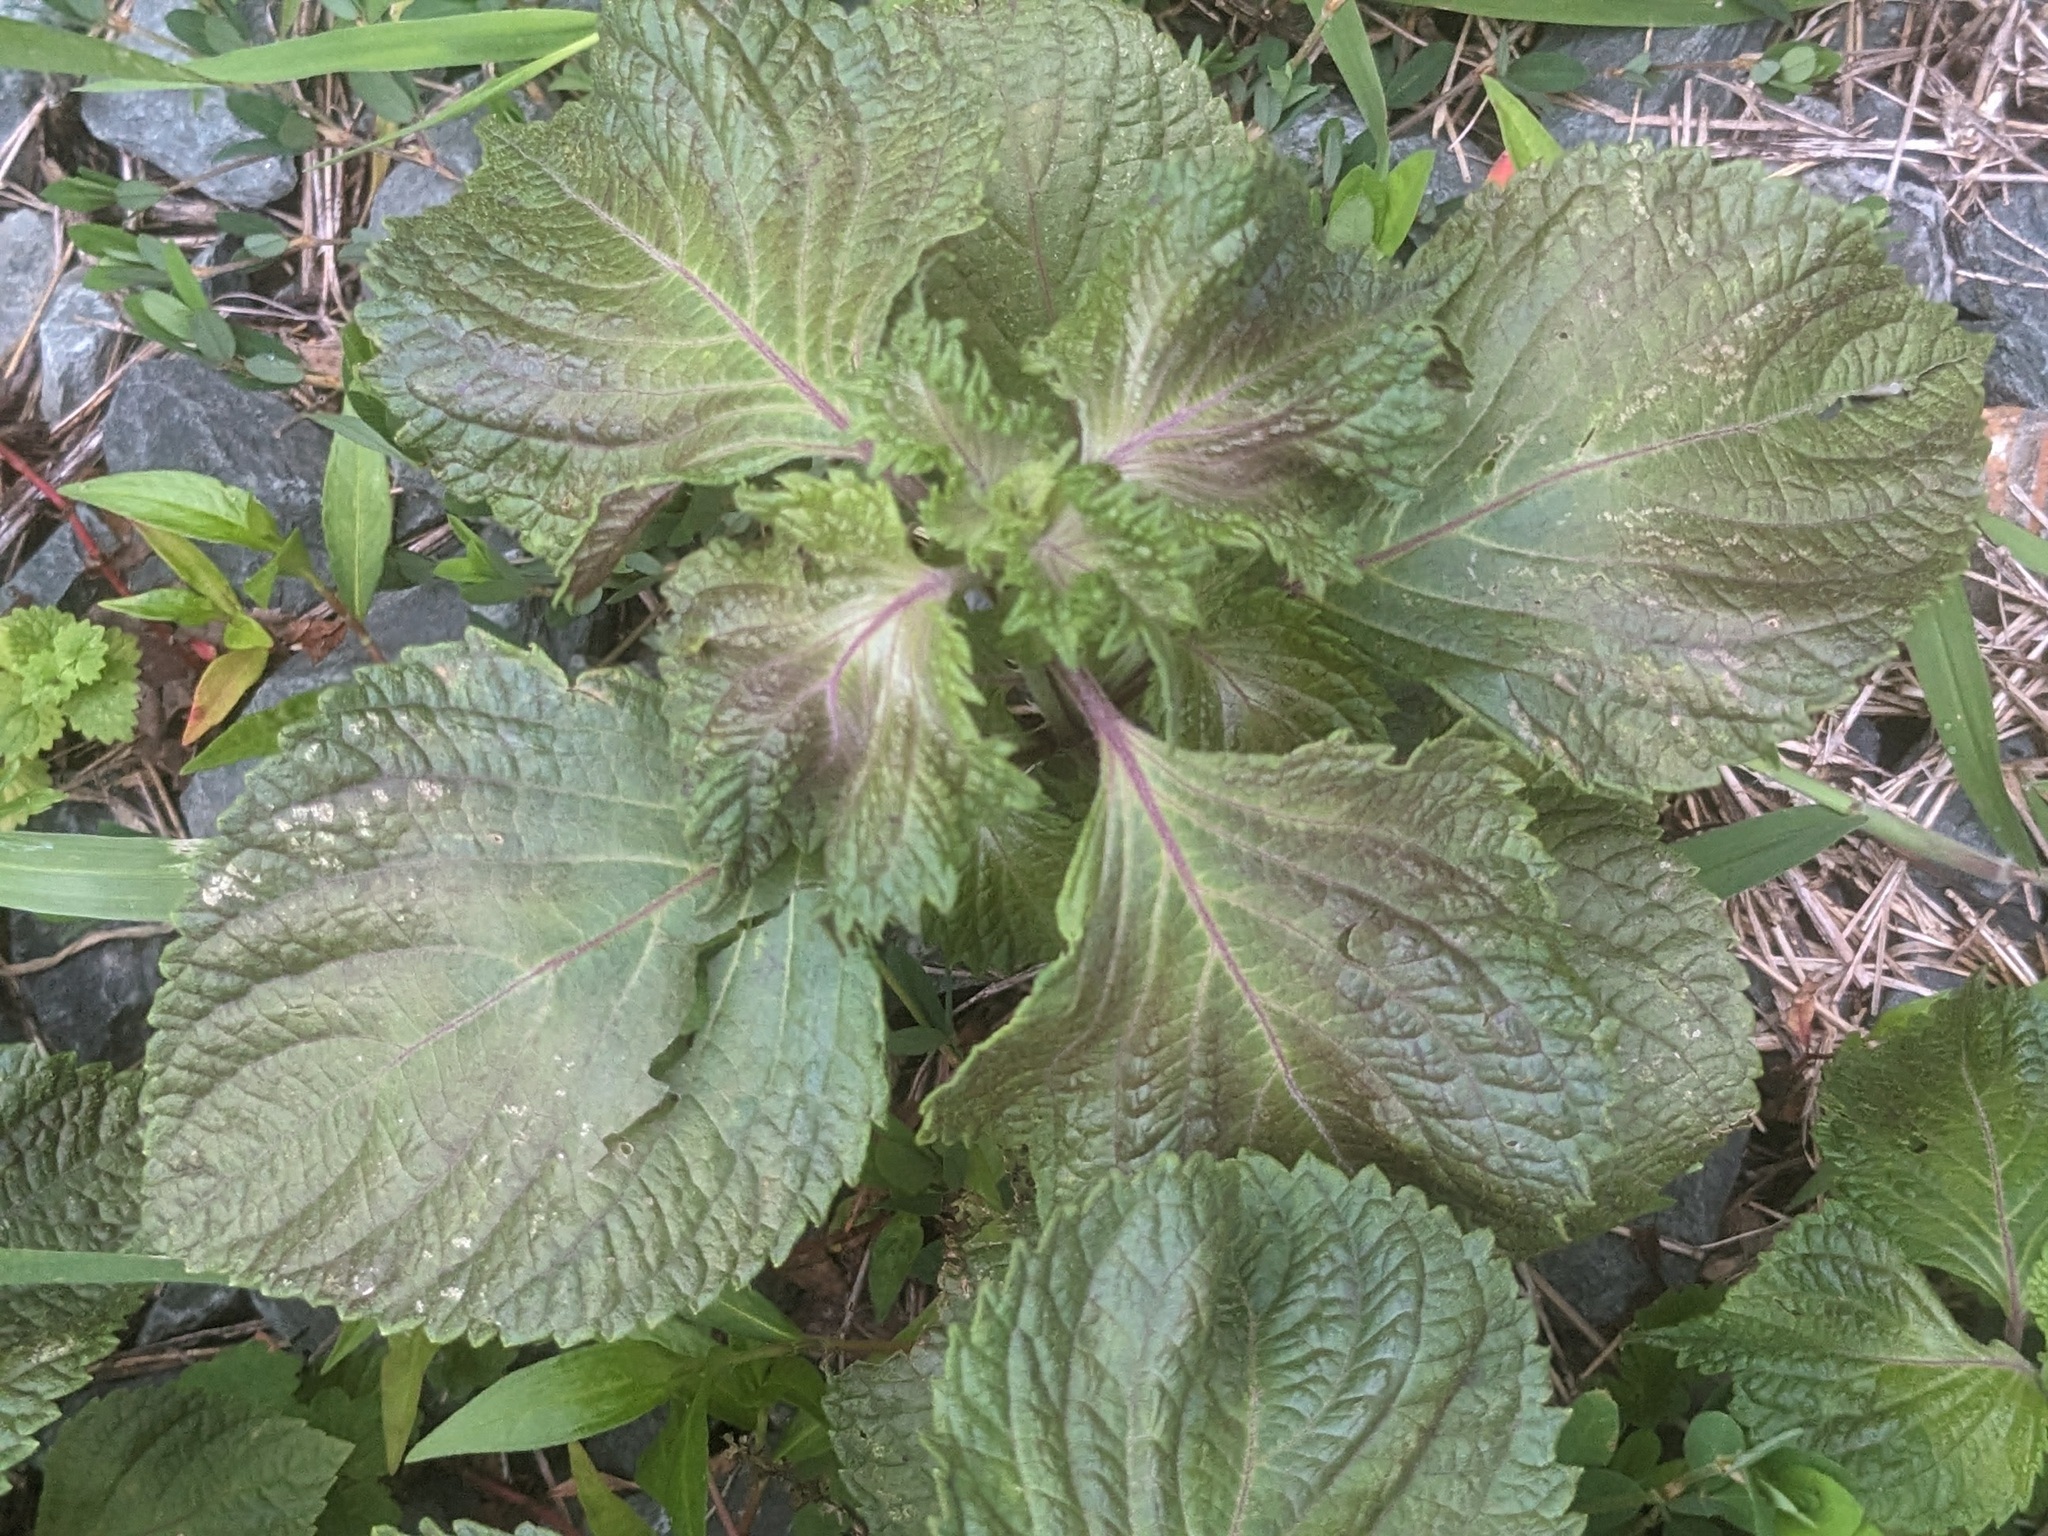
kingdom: Plantae
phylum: Tracheophyta
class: Magnoliopsida
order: Lamiales
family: Lamiaceae
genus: Perilla
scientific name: Perilla frutescens
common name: Perilla
